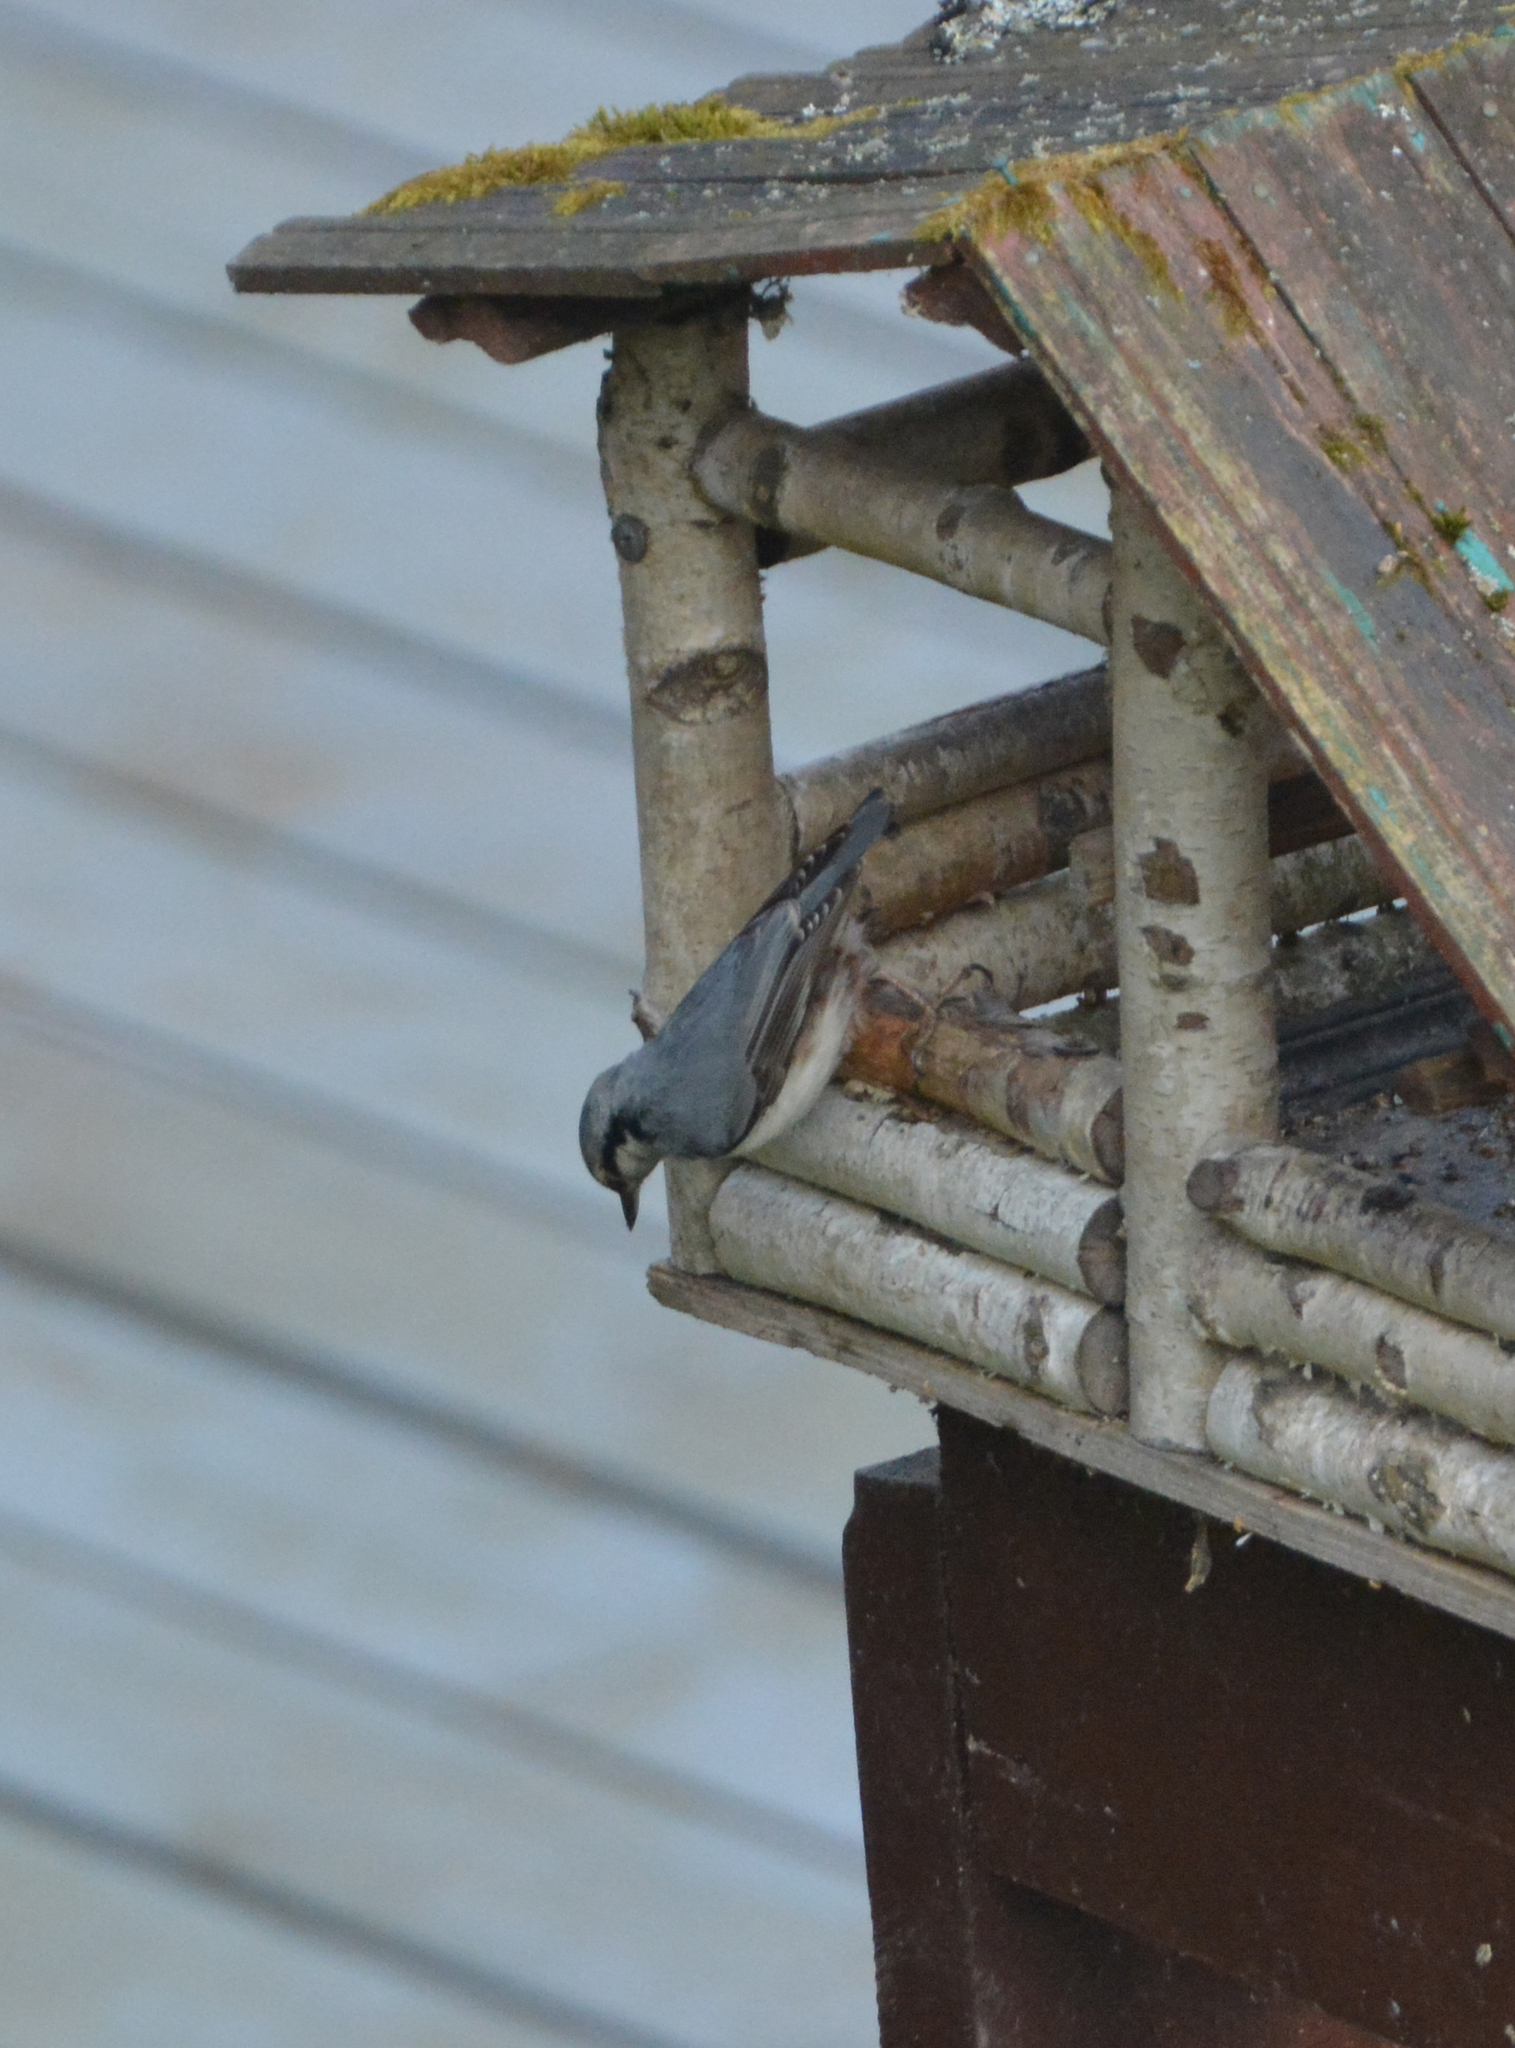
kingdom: Animalia
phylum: Chordata
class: Aves
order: Passeriformes
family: Sittidae
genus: Sitta
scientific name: Sitta europaea
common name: Eurasian nuthatch
